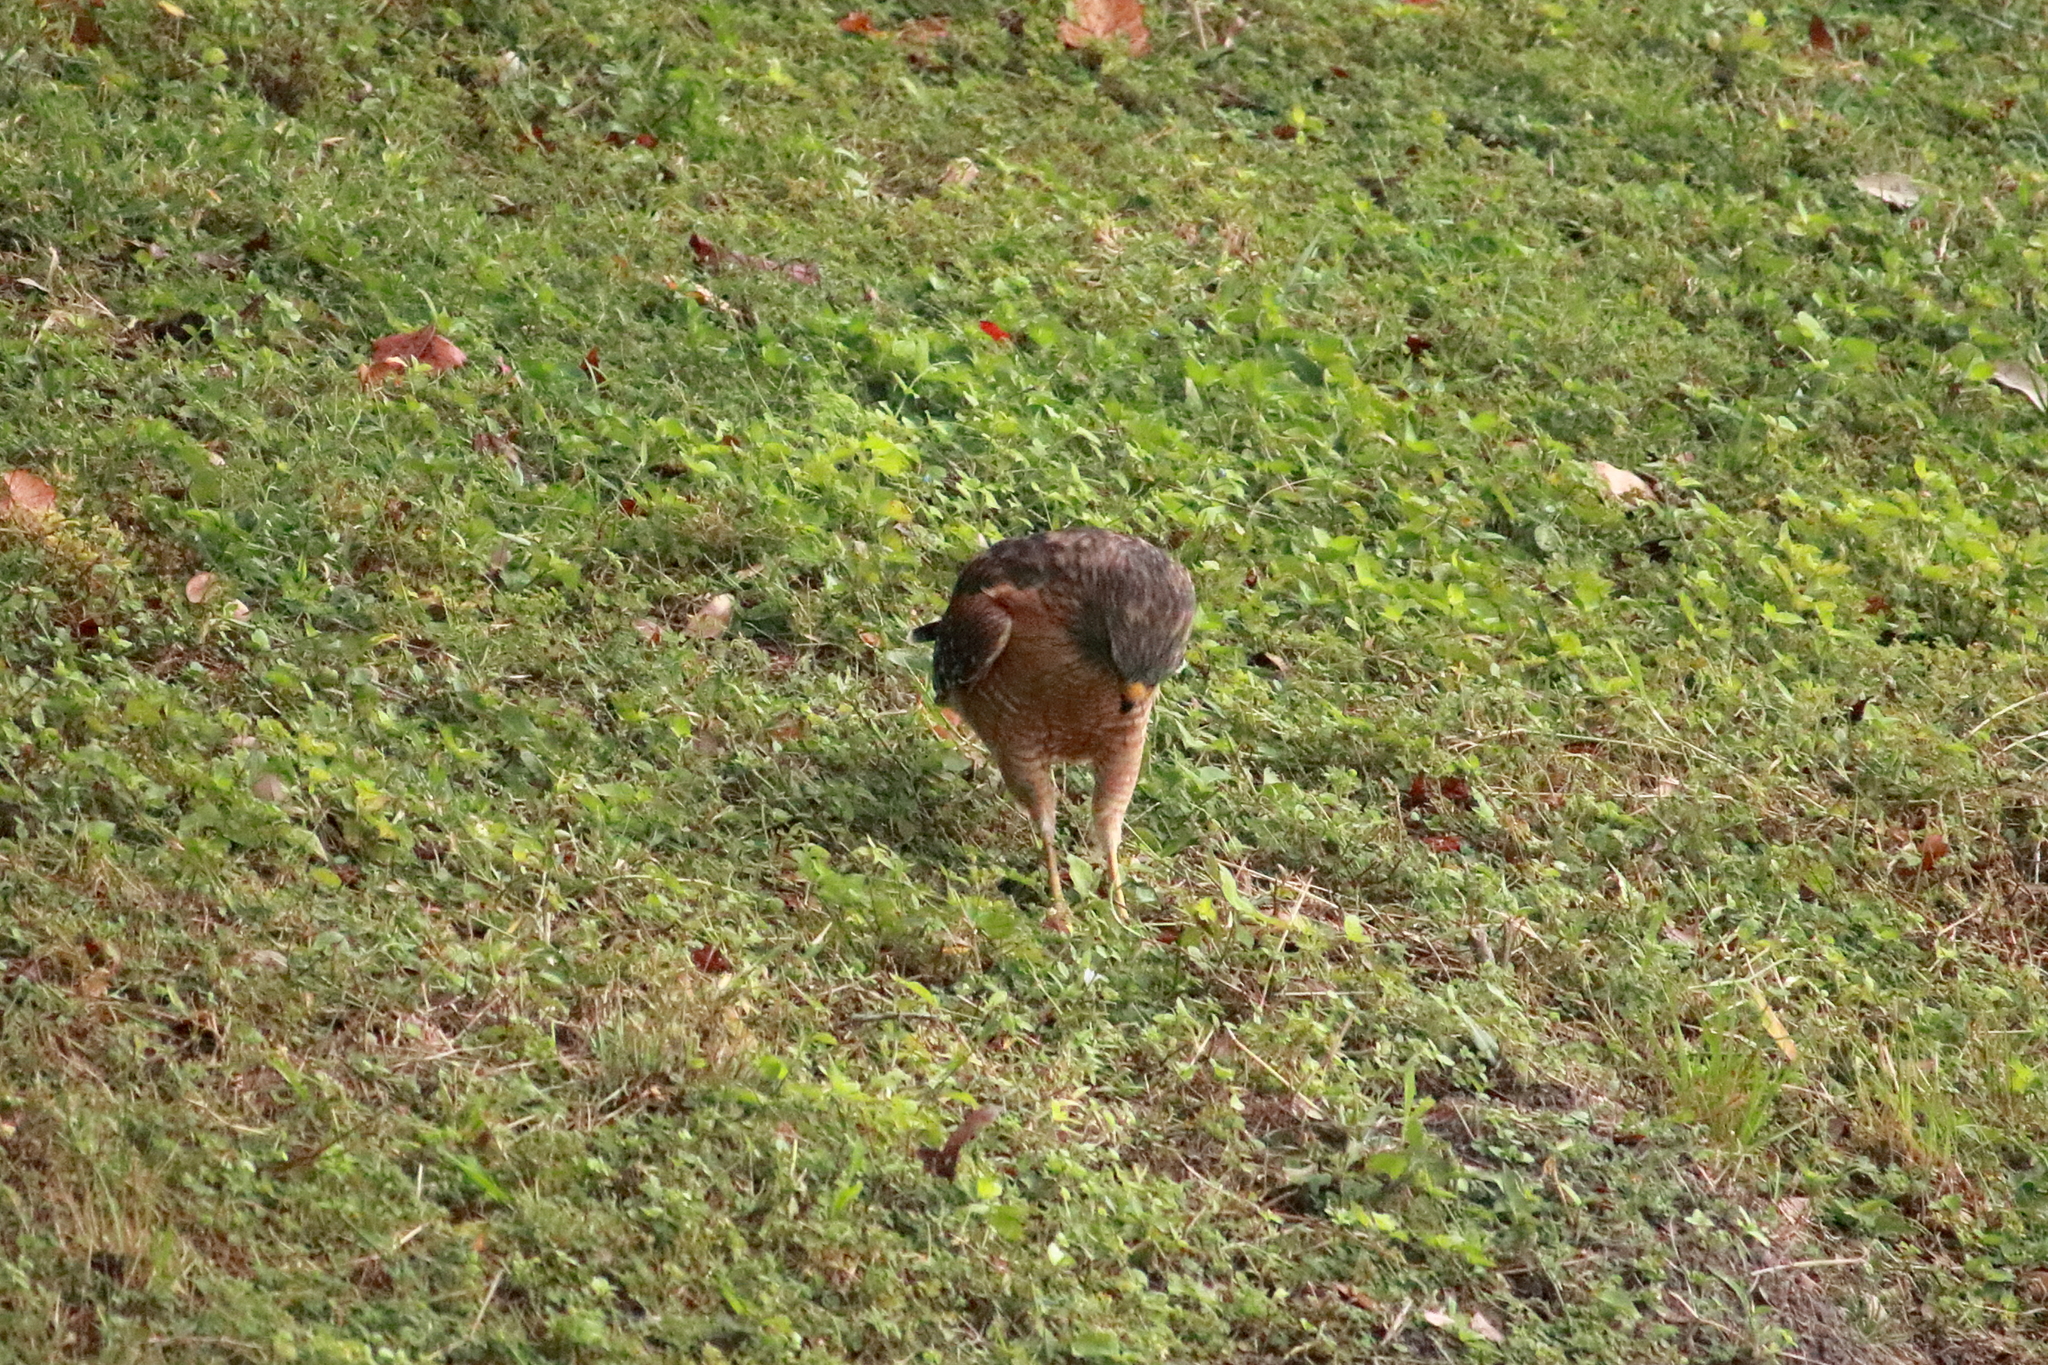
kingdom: Animalia
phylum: Chordata
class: Aves
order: Accipitriformes
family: Accipitridae
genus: Buteo
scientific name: Buteo lineatus
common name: Red-shouldered hawk
